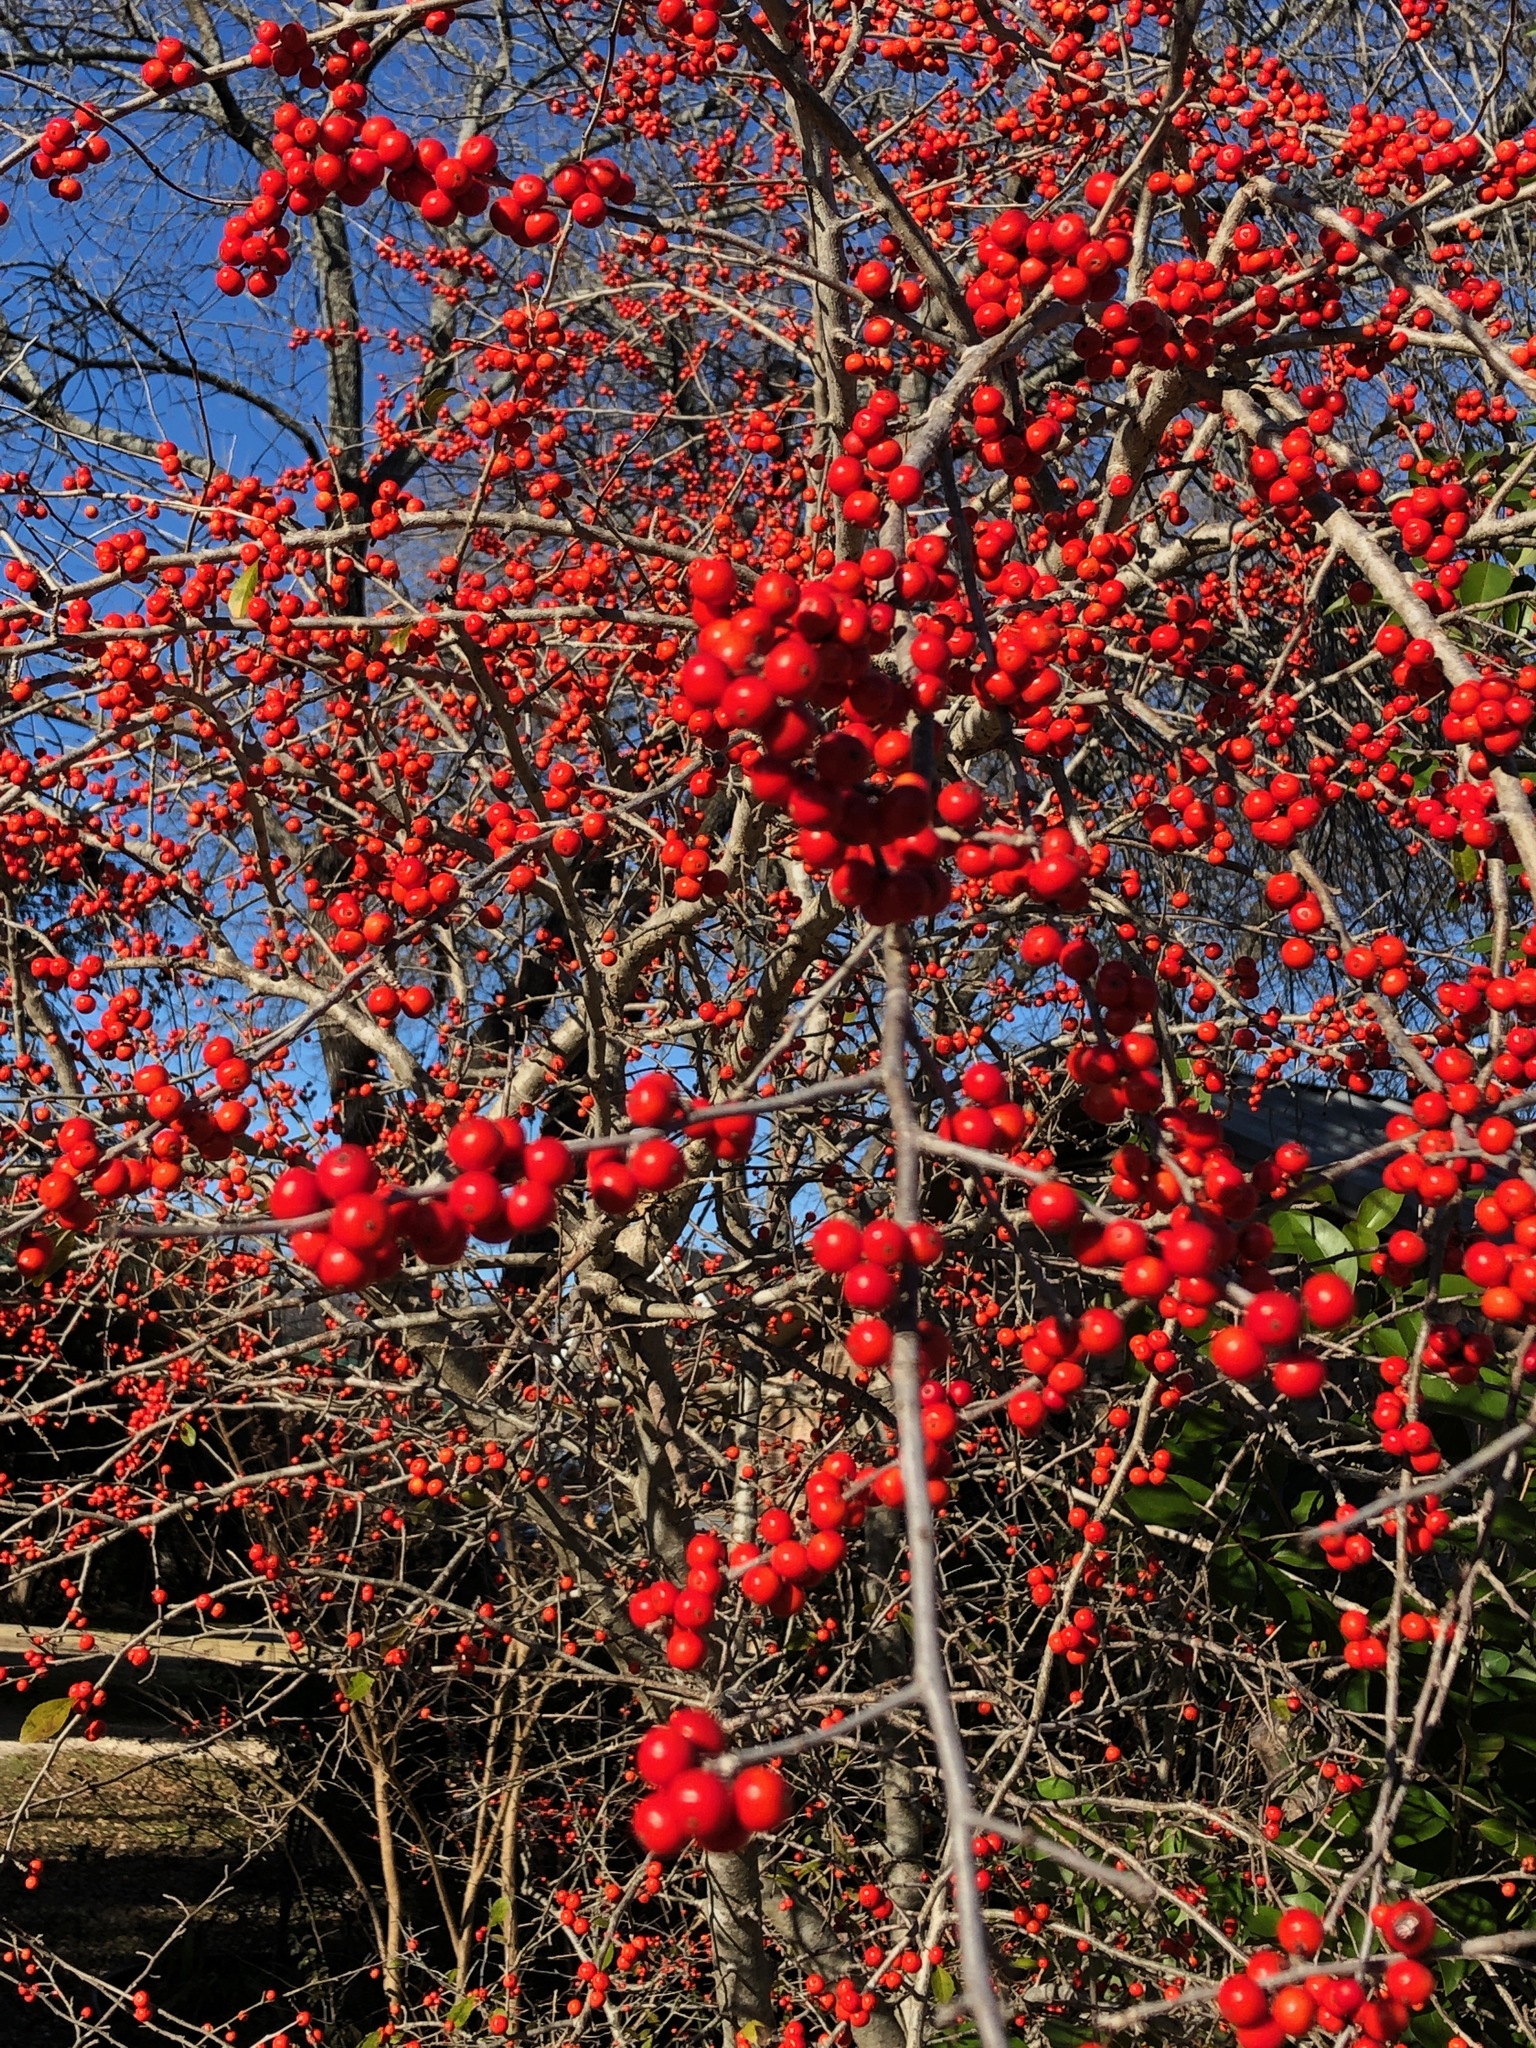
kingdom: Plantae
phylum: Tracheophyta
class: Magnoliopsida
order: Aquifoliales
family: Aquifoliaceae
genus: Ilex
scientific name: Ilex decidua
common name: Possum-haw
